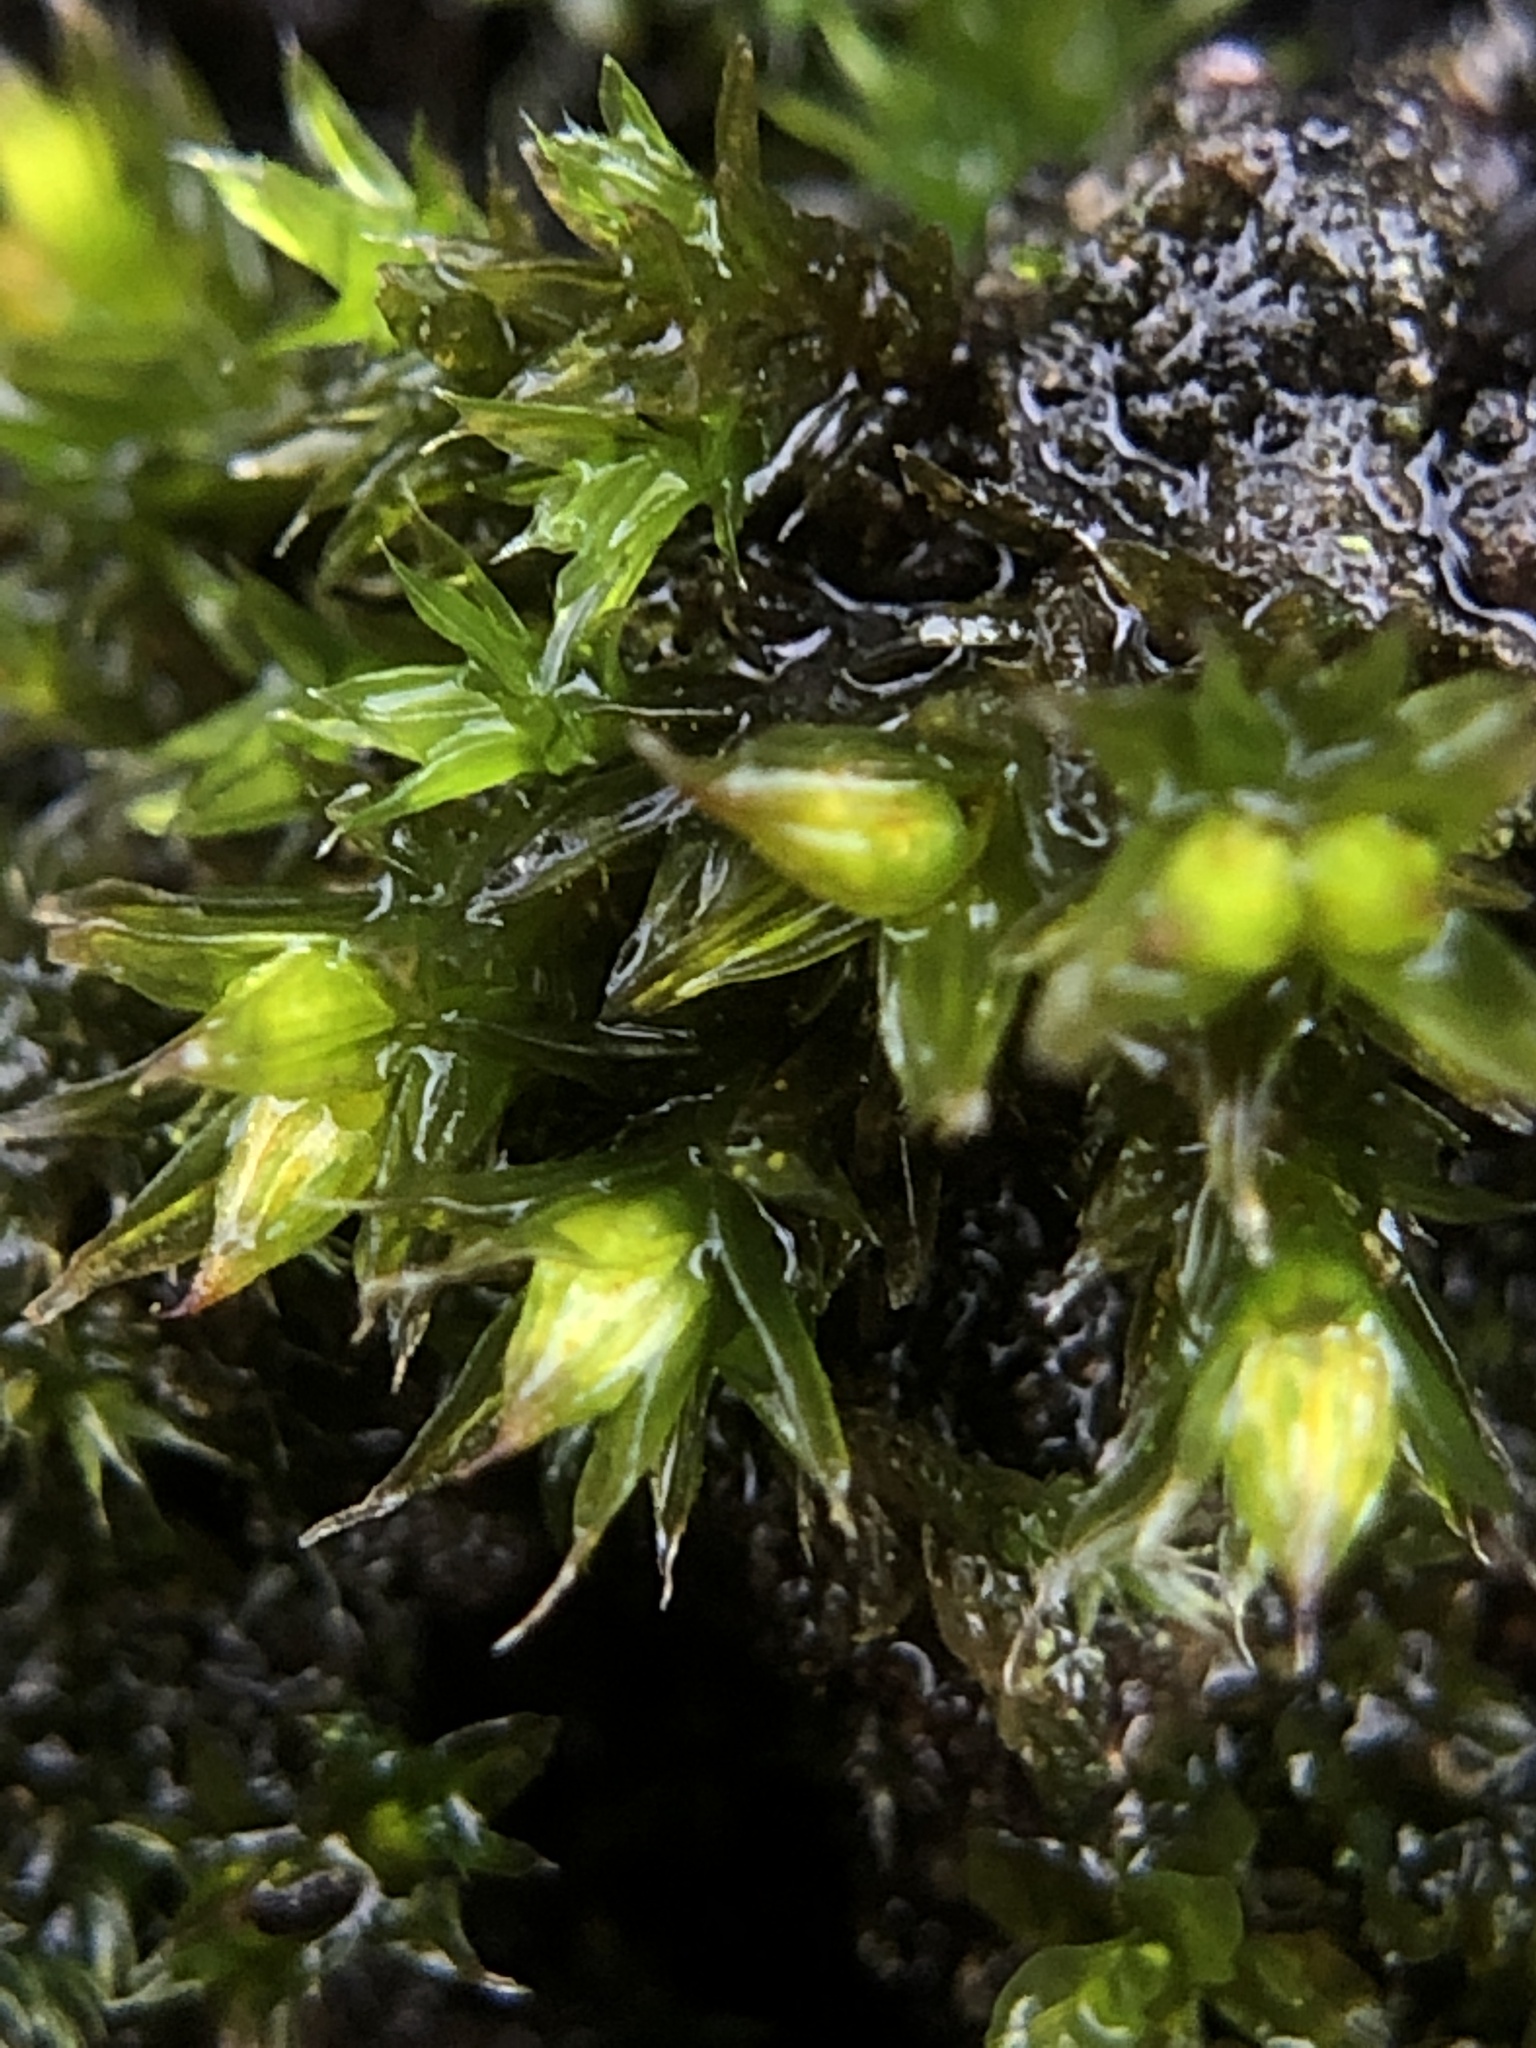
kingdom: Plantae
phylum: Bryophyta
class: Bryopsida
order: Orthotrichales
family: Orthotrichaceae
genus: Orthotrichum
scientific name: Orthotrichum diaphanum
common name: White-tipped bristle-moss
